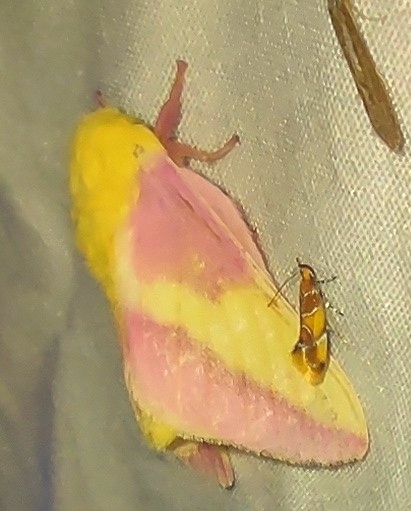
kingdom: Animalia
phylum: Arthropoda
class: Insecta
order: Lepidoptera
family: Saturniidae
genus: Dryocampa
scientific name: Dryocampa rubicunda
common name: Rosy maple moth
